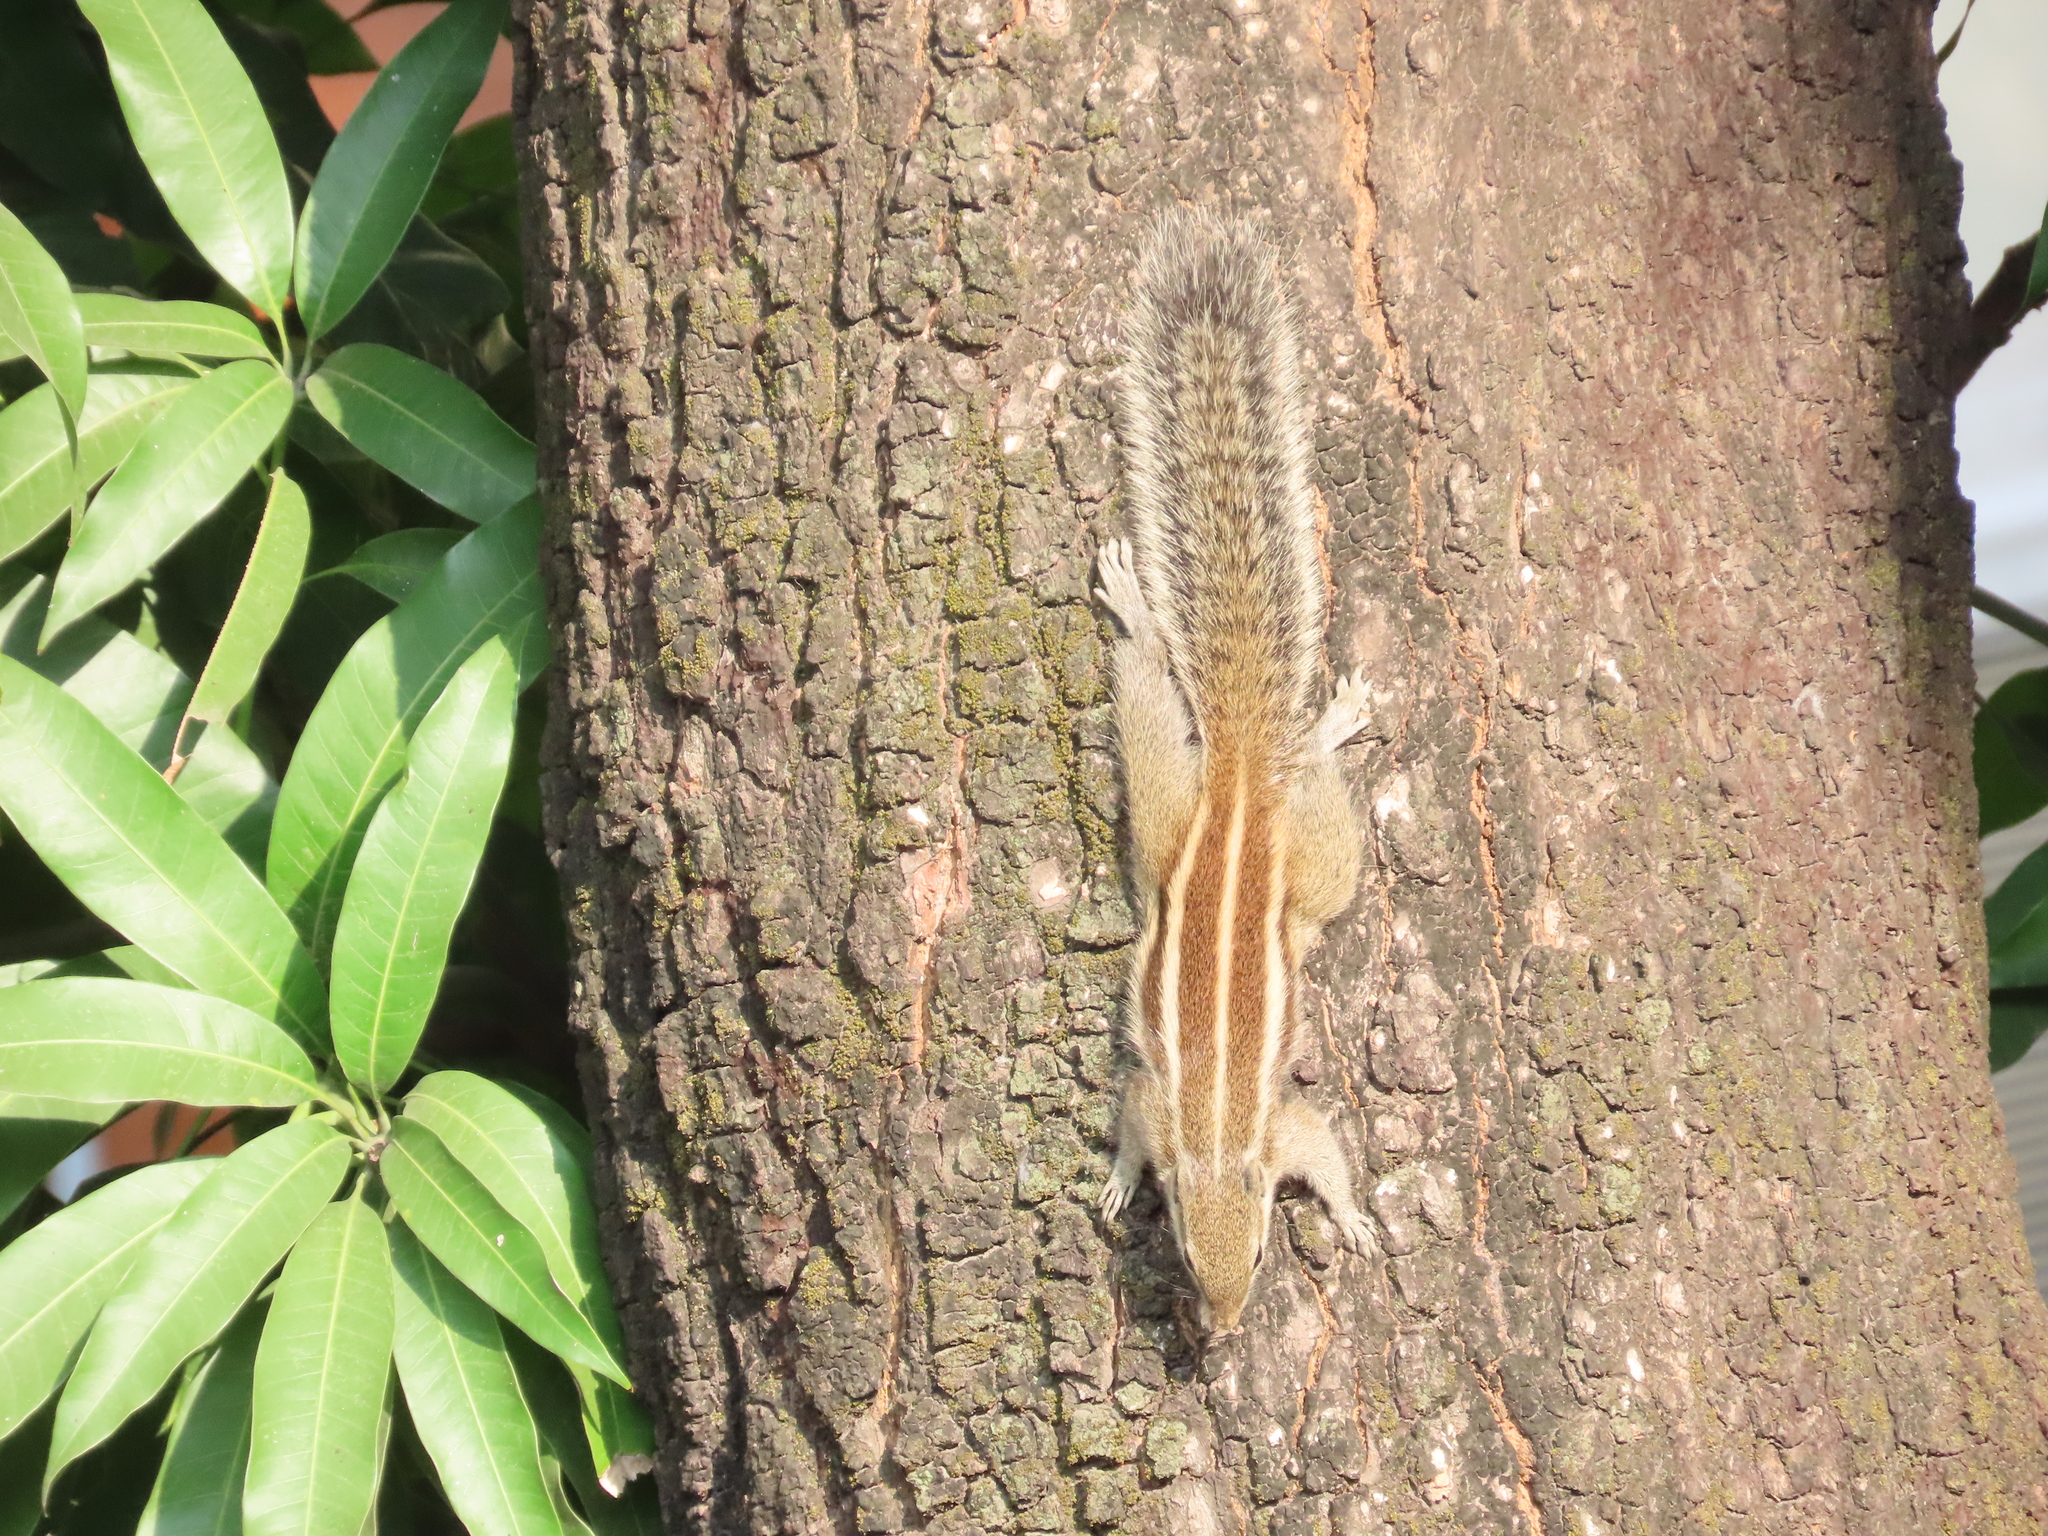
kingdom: Animalia
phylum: Chordata
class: Mammalia
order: Rodentia
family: Sciuridae
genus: Funambulus
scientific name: Funambulus pennantii
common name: Northern palm squirrel
